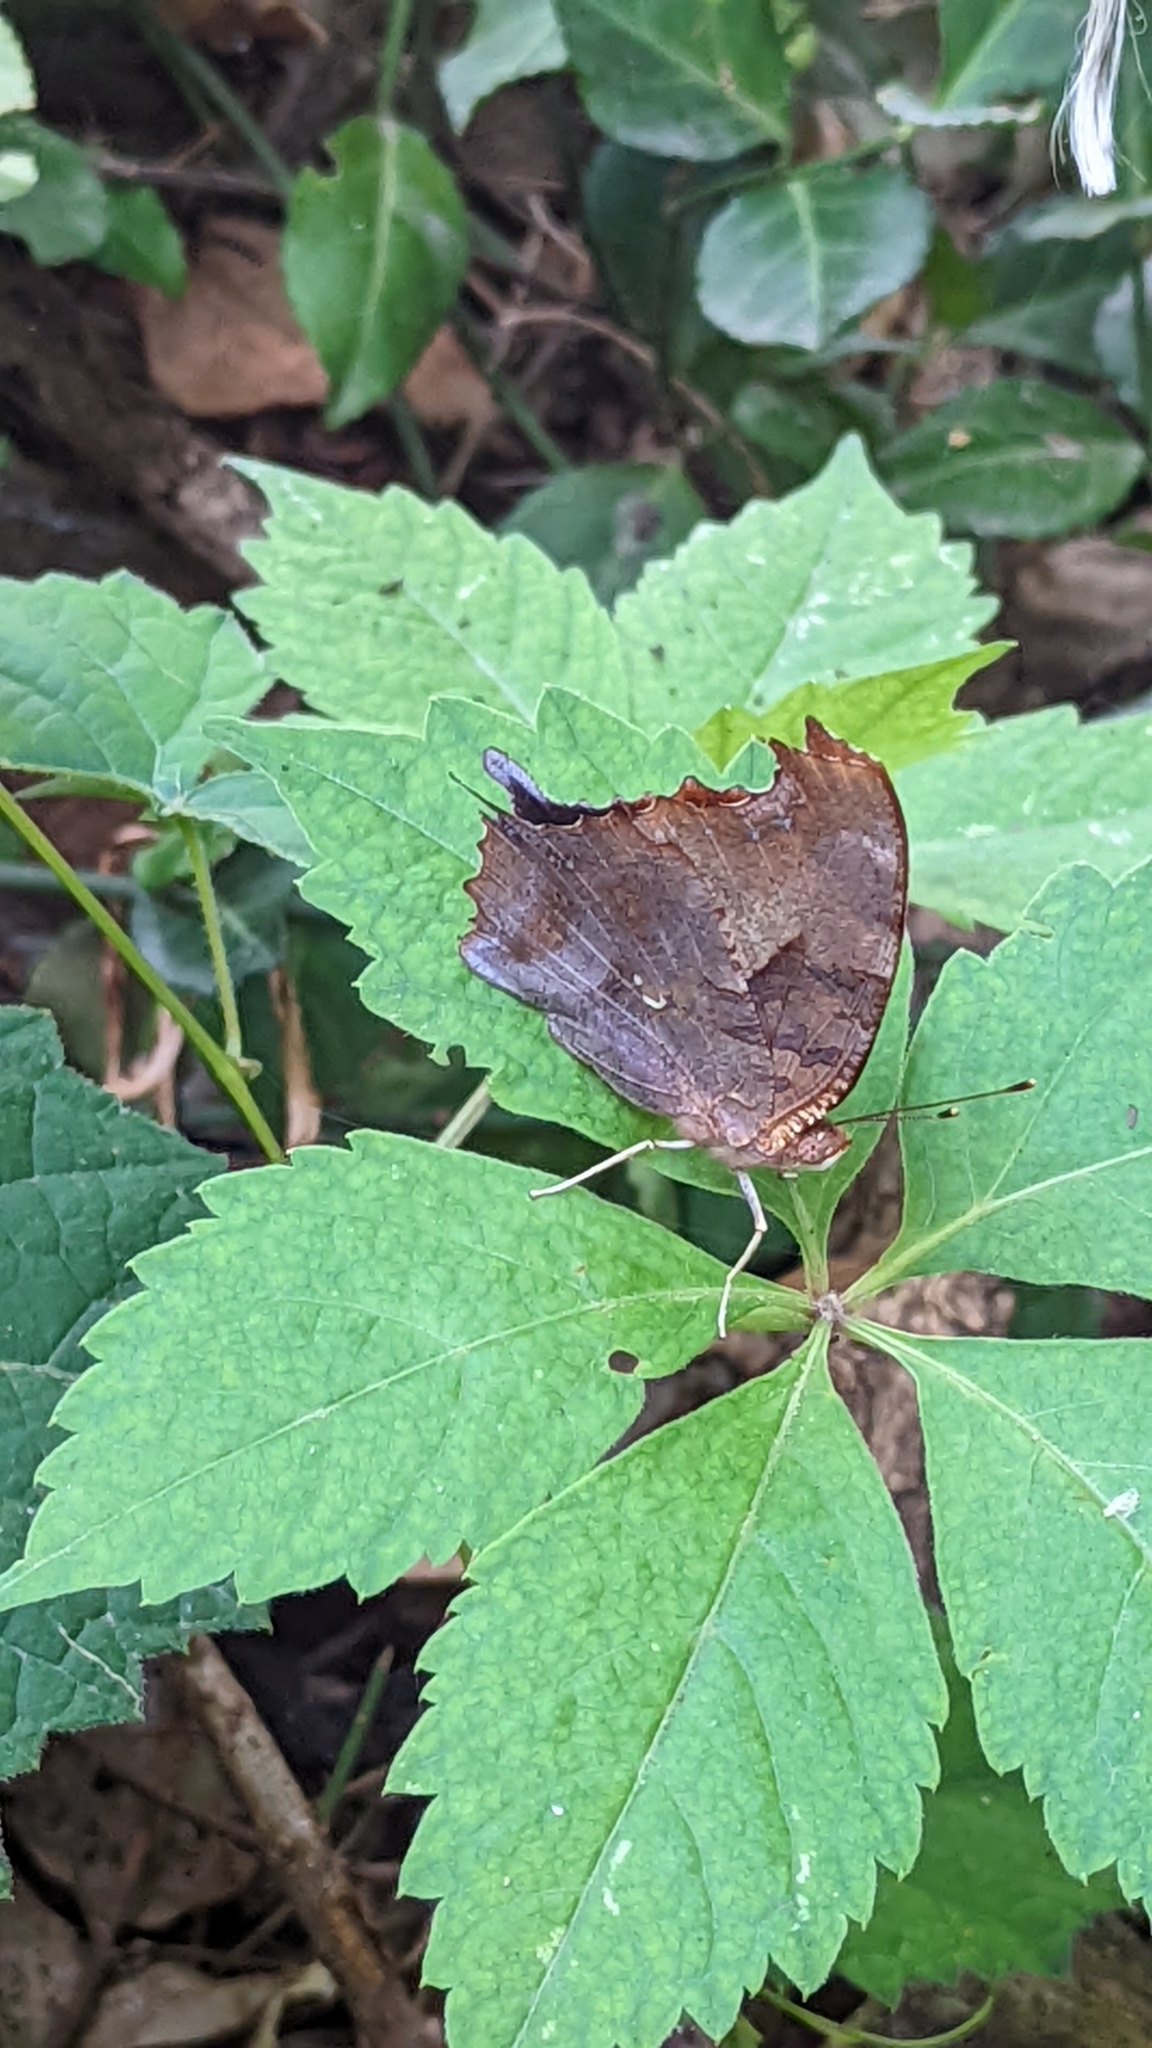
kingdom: Animalia
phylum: Arthropoda
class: Insecta
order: Lepidoptera
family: Nymphalidae
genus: Polygonia
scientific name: Polygonia interrogationis
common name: Question mark
